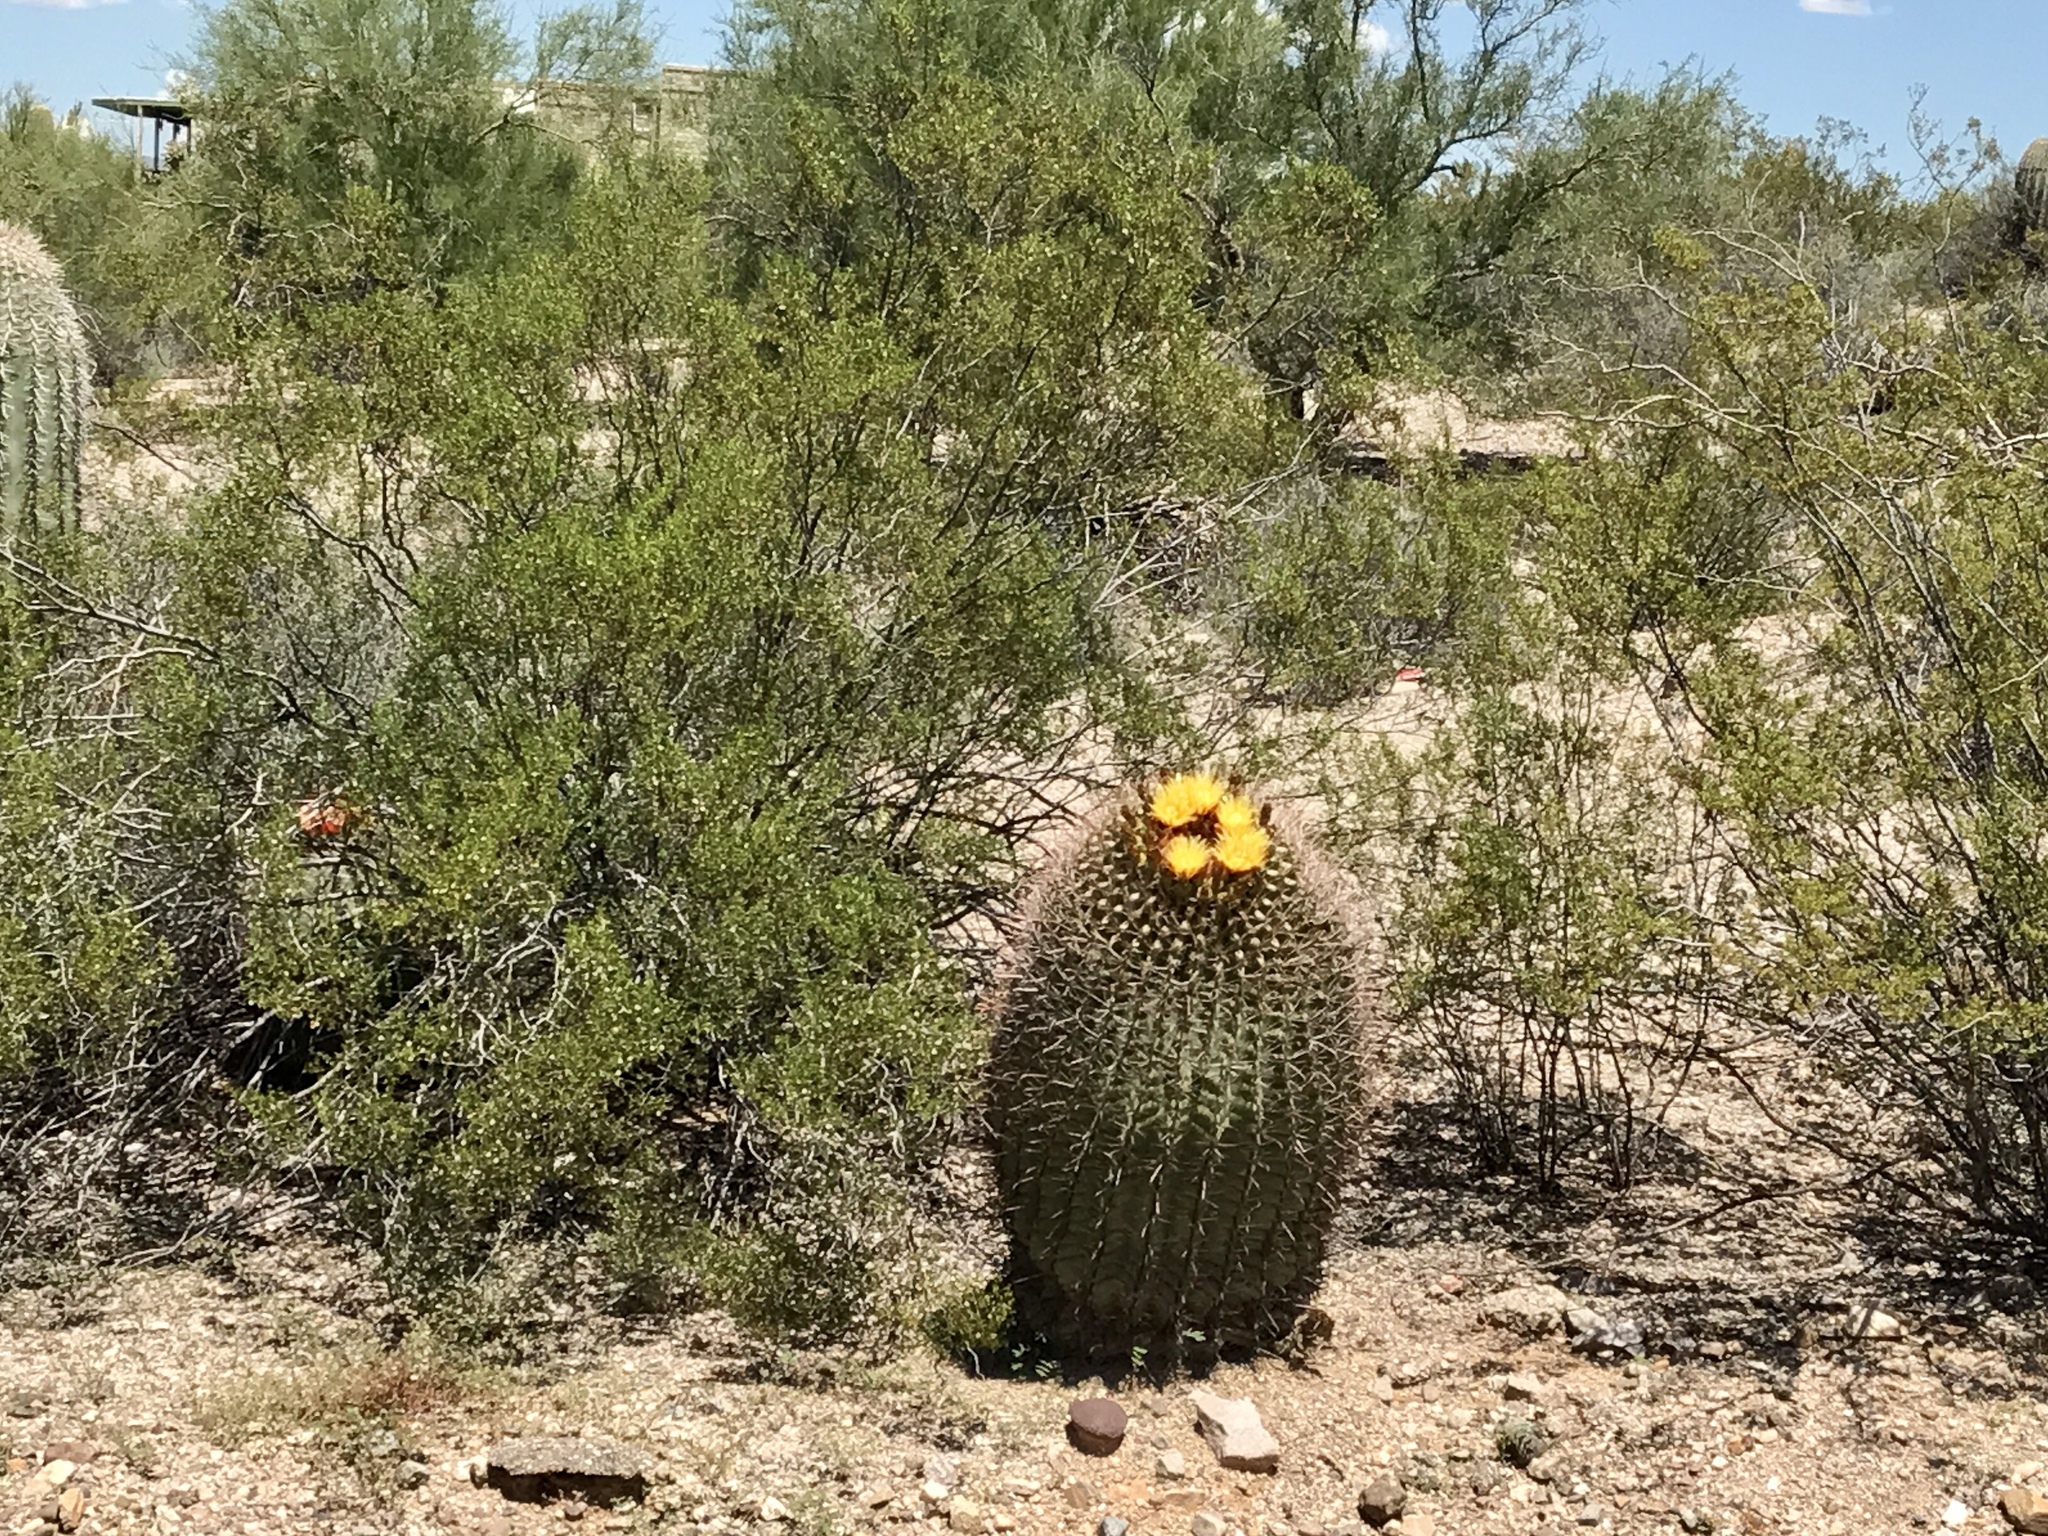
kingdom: Plantae
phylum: Tracheophyta
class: Magnoliopsida
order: Caryophyllales
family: Cactaceae
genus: Ferocactus
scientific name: Ferocactus wislizeni
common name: Candy barrel cactus
